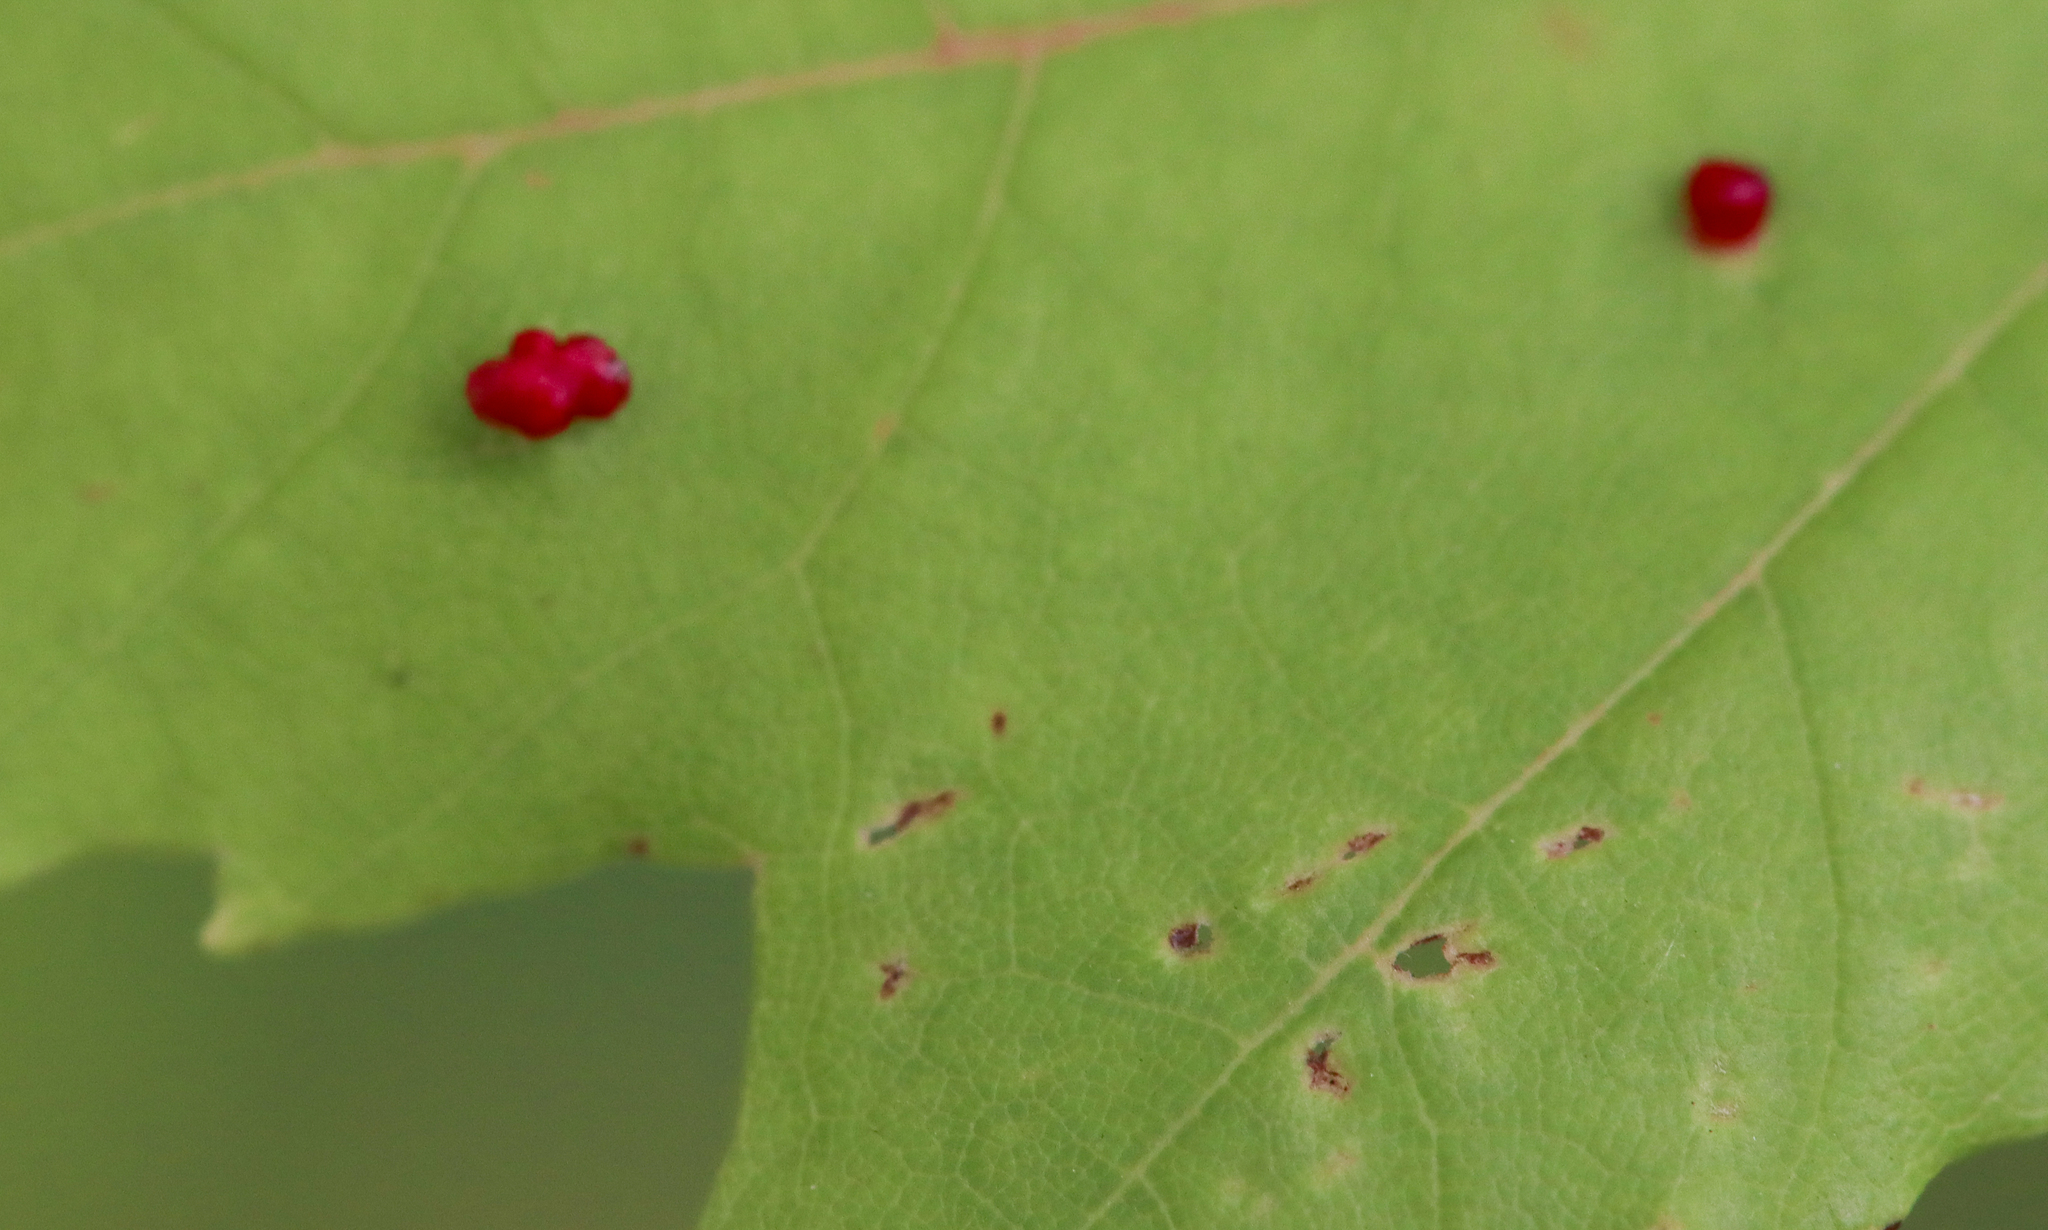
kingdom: Animalia
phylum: Arthropoda
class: Arachnida
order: Trombidiformes
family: Eriophyidae
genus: Vasates
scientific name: Vasates quadripedes
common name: Maple bladder gall mite
